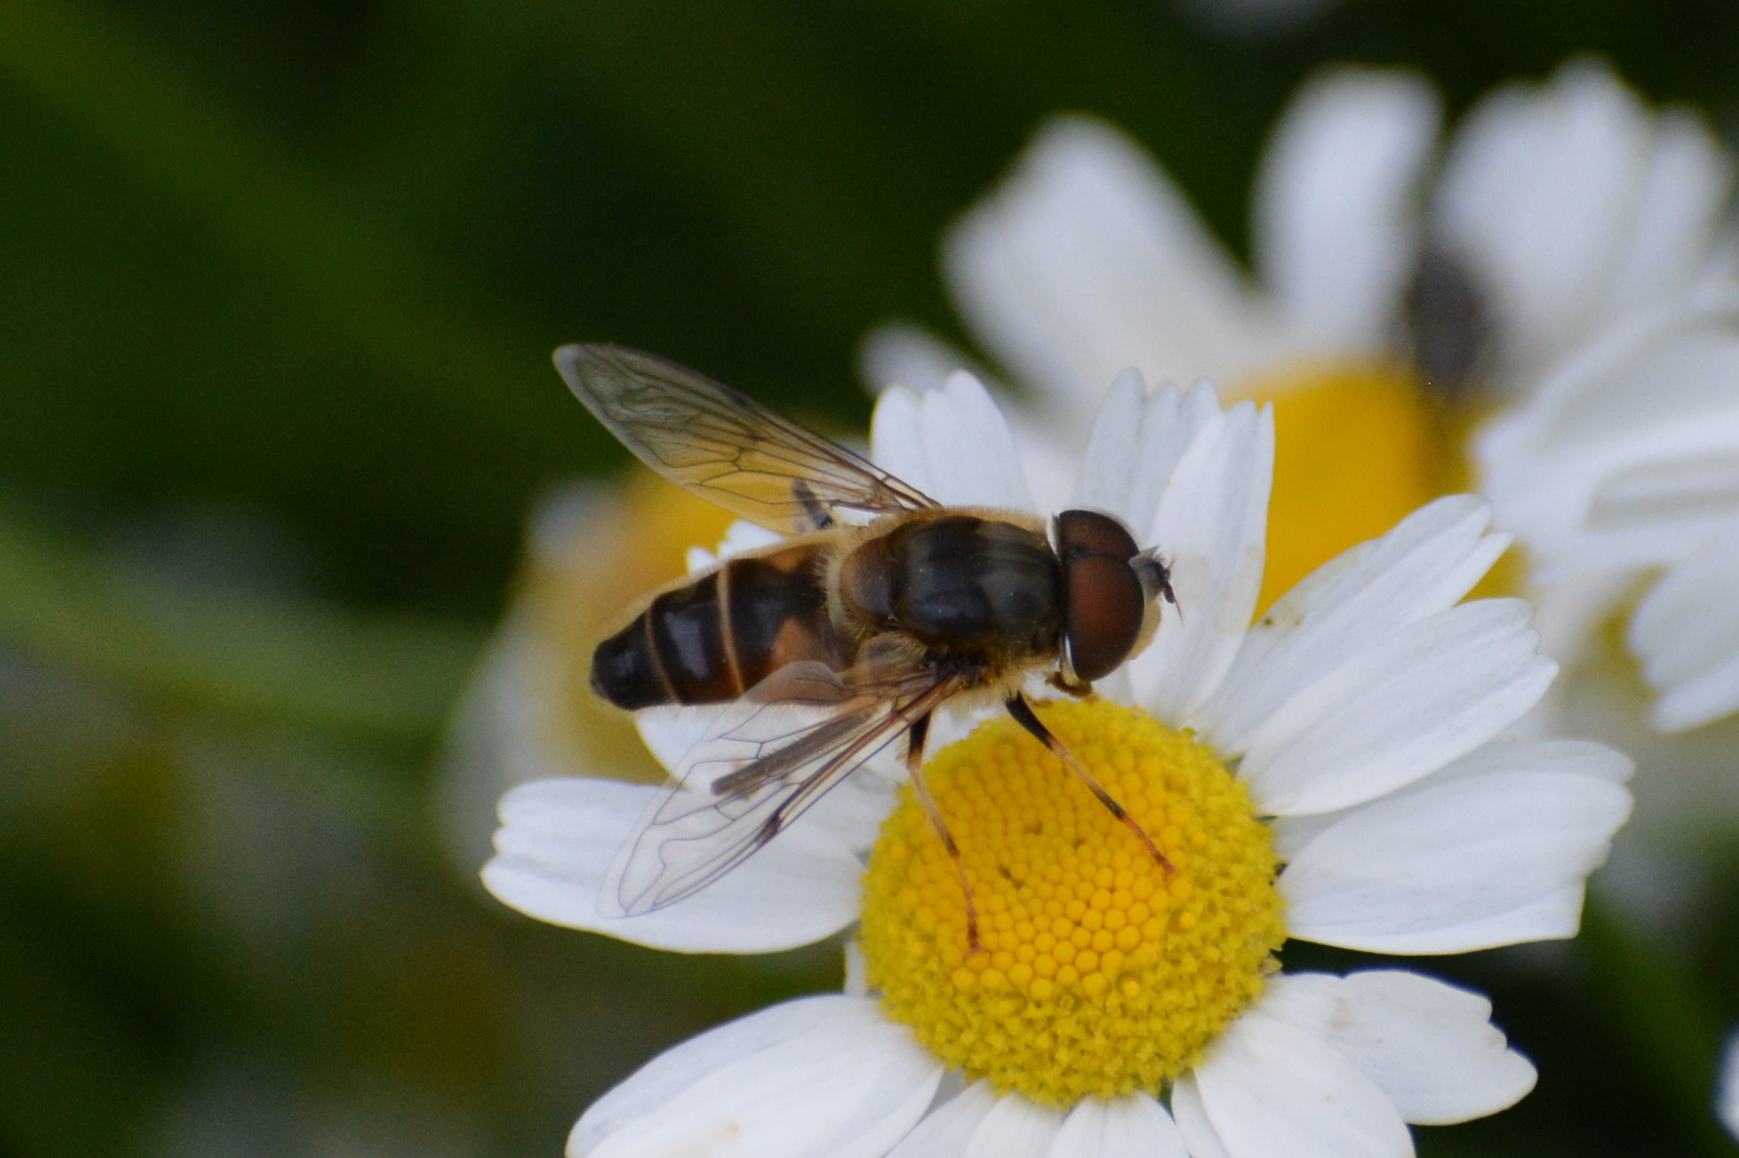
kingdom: Animalia
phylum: Arthropoda
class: Insecta
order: Diptera
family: Syrphidae
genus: Eristalis
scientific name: Eristalis pertinax
